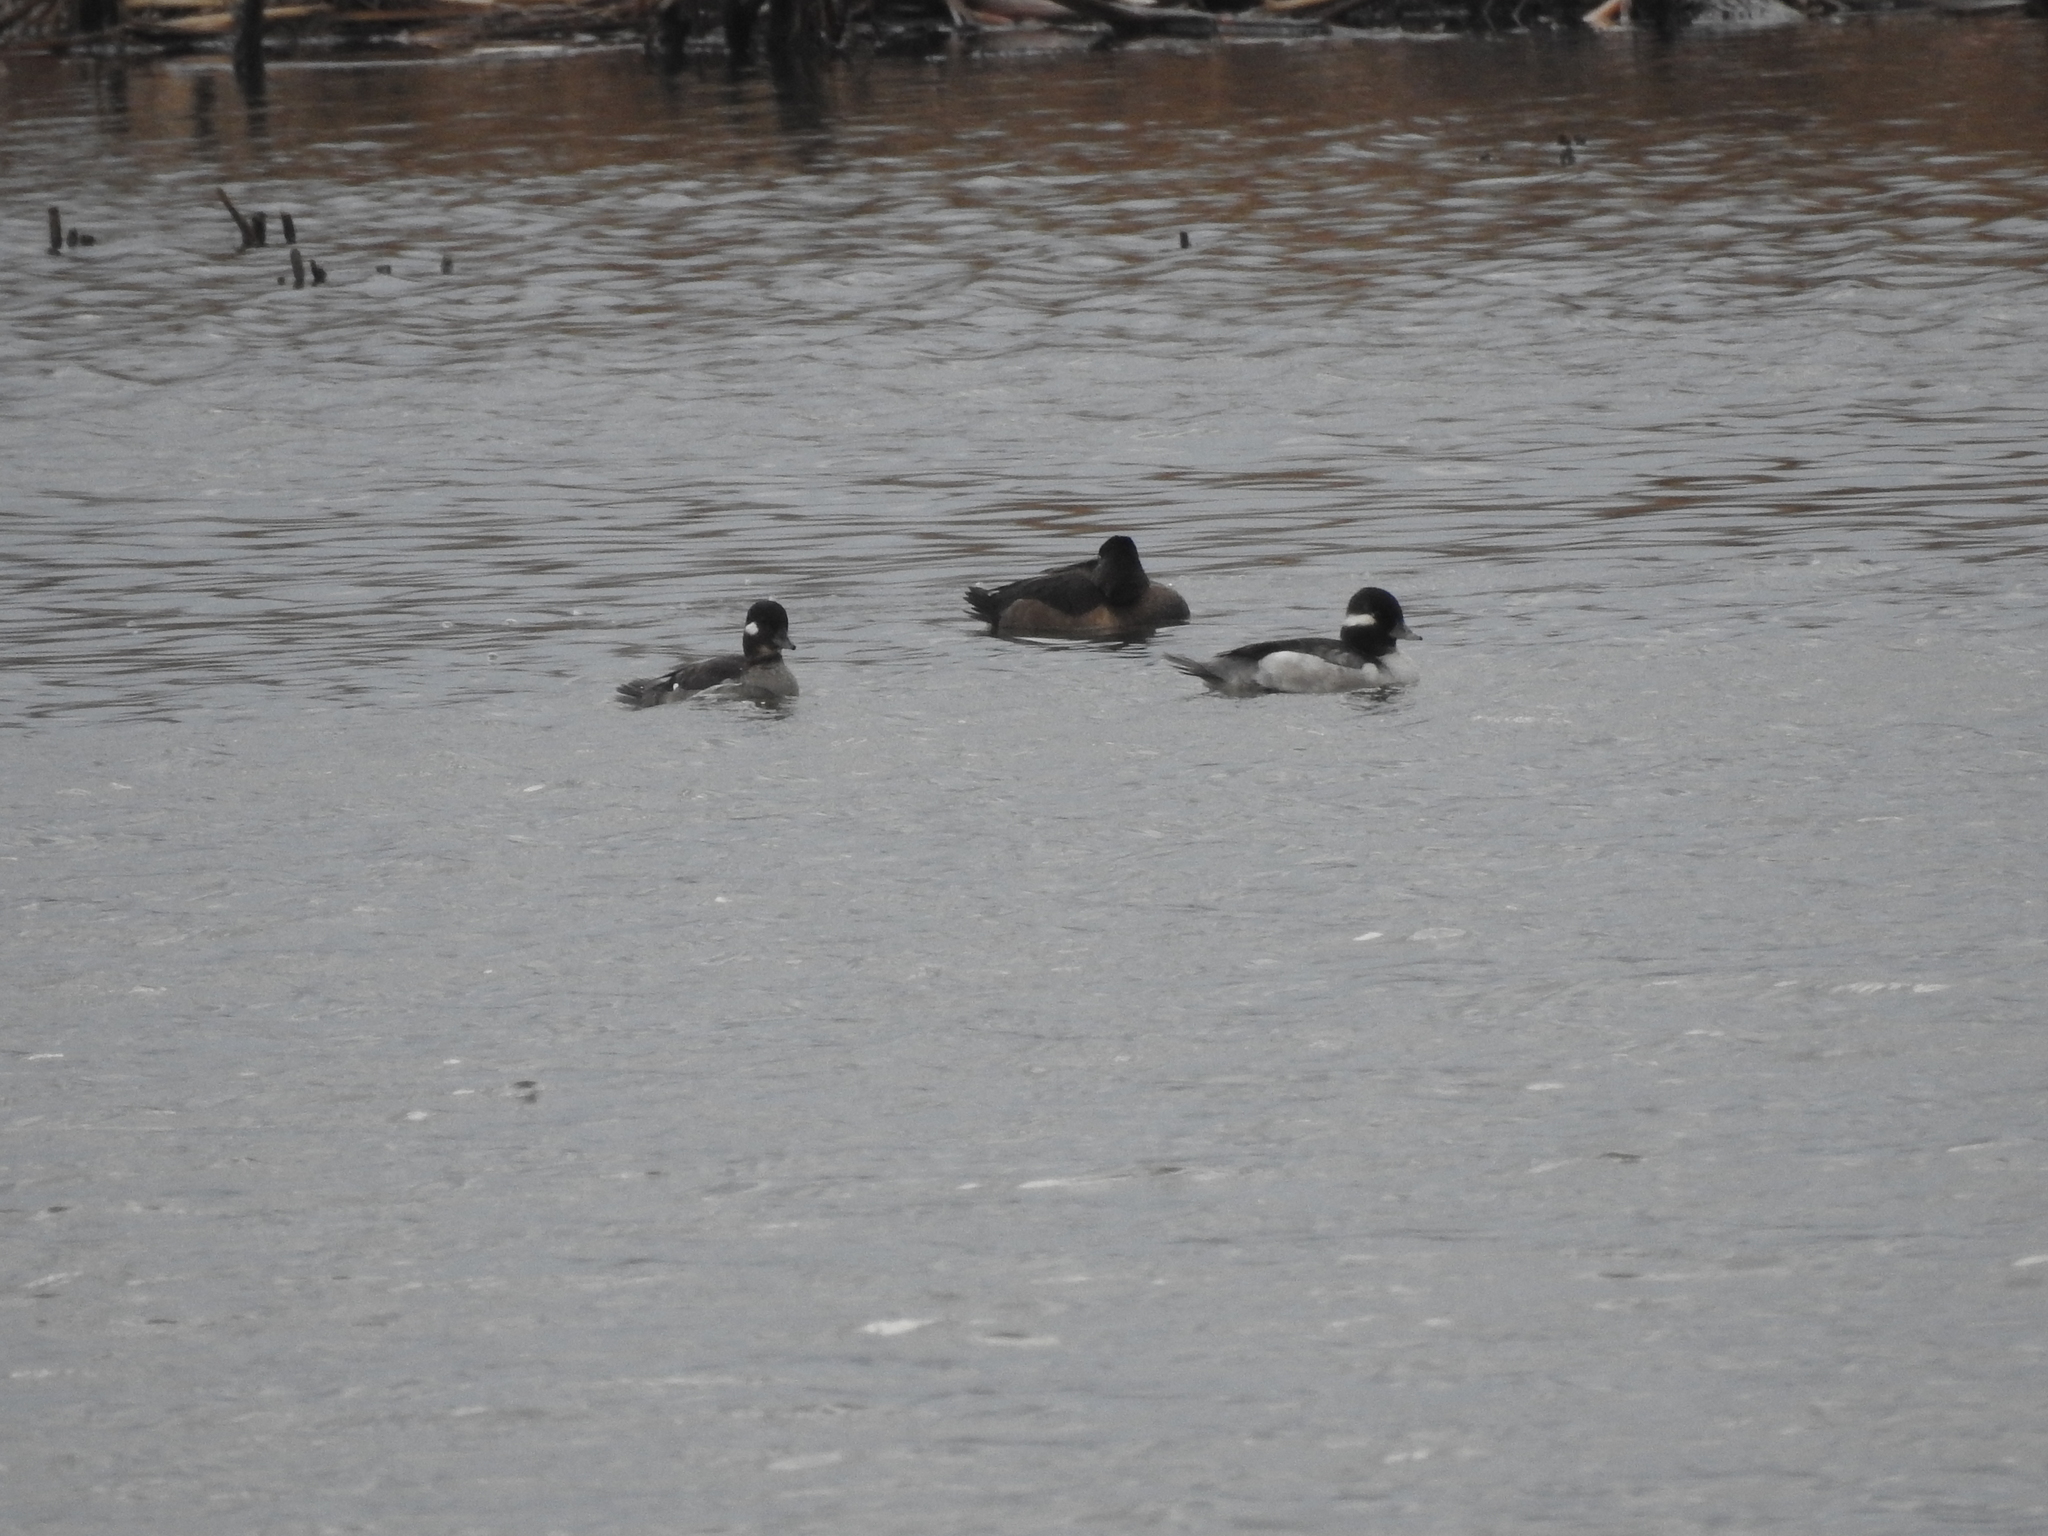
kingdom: Animalia
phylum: Chordata
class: Aves
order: Anseriformes
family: Anatidae
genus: Bucephala
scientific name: Bucephala albeola
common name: Bufflehead
